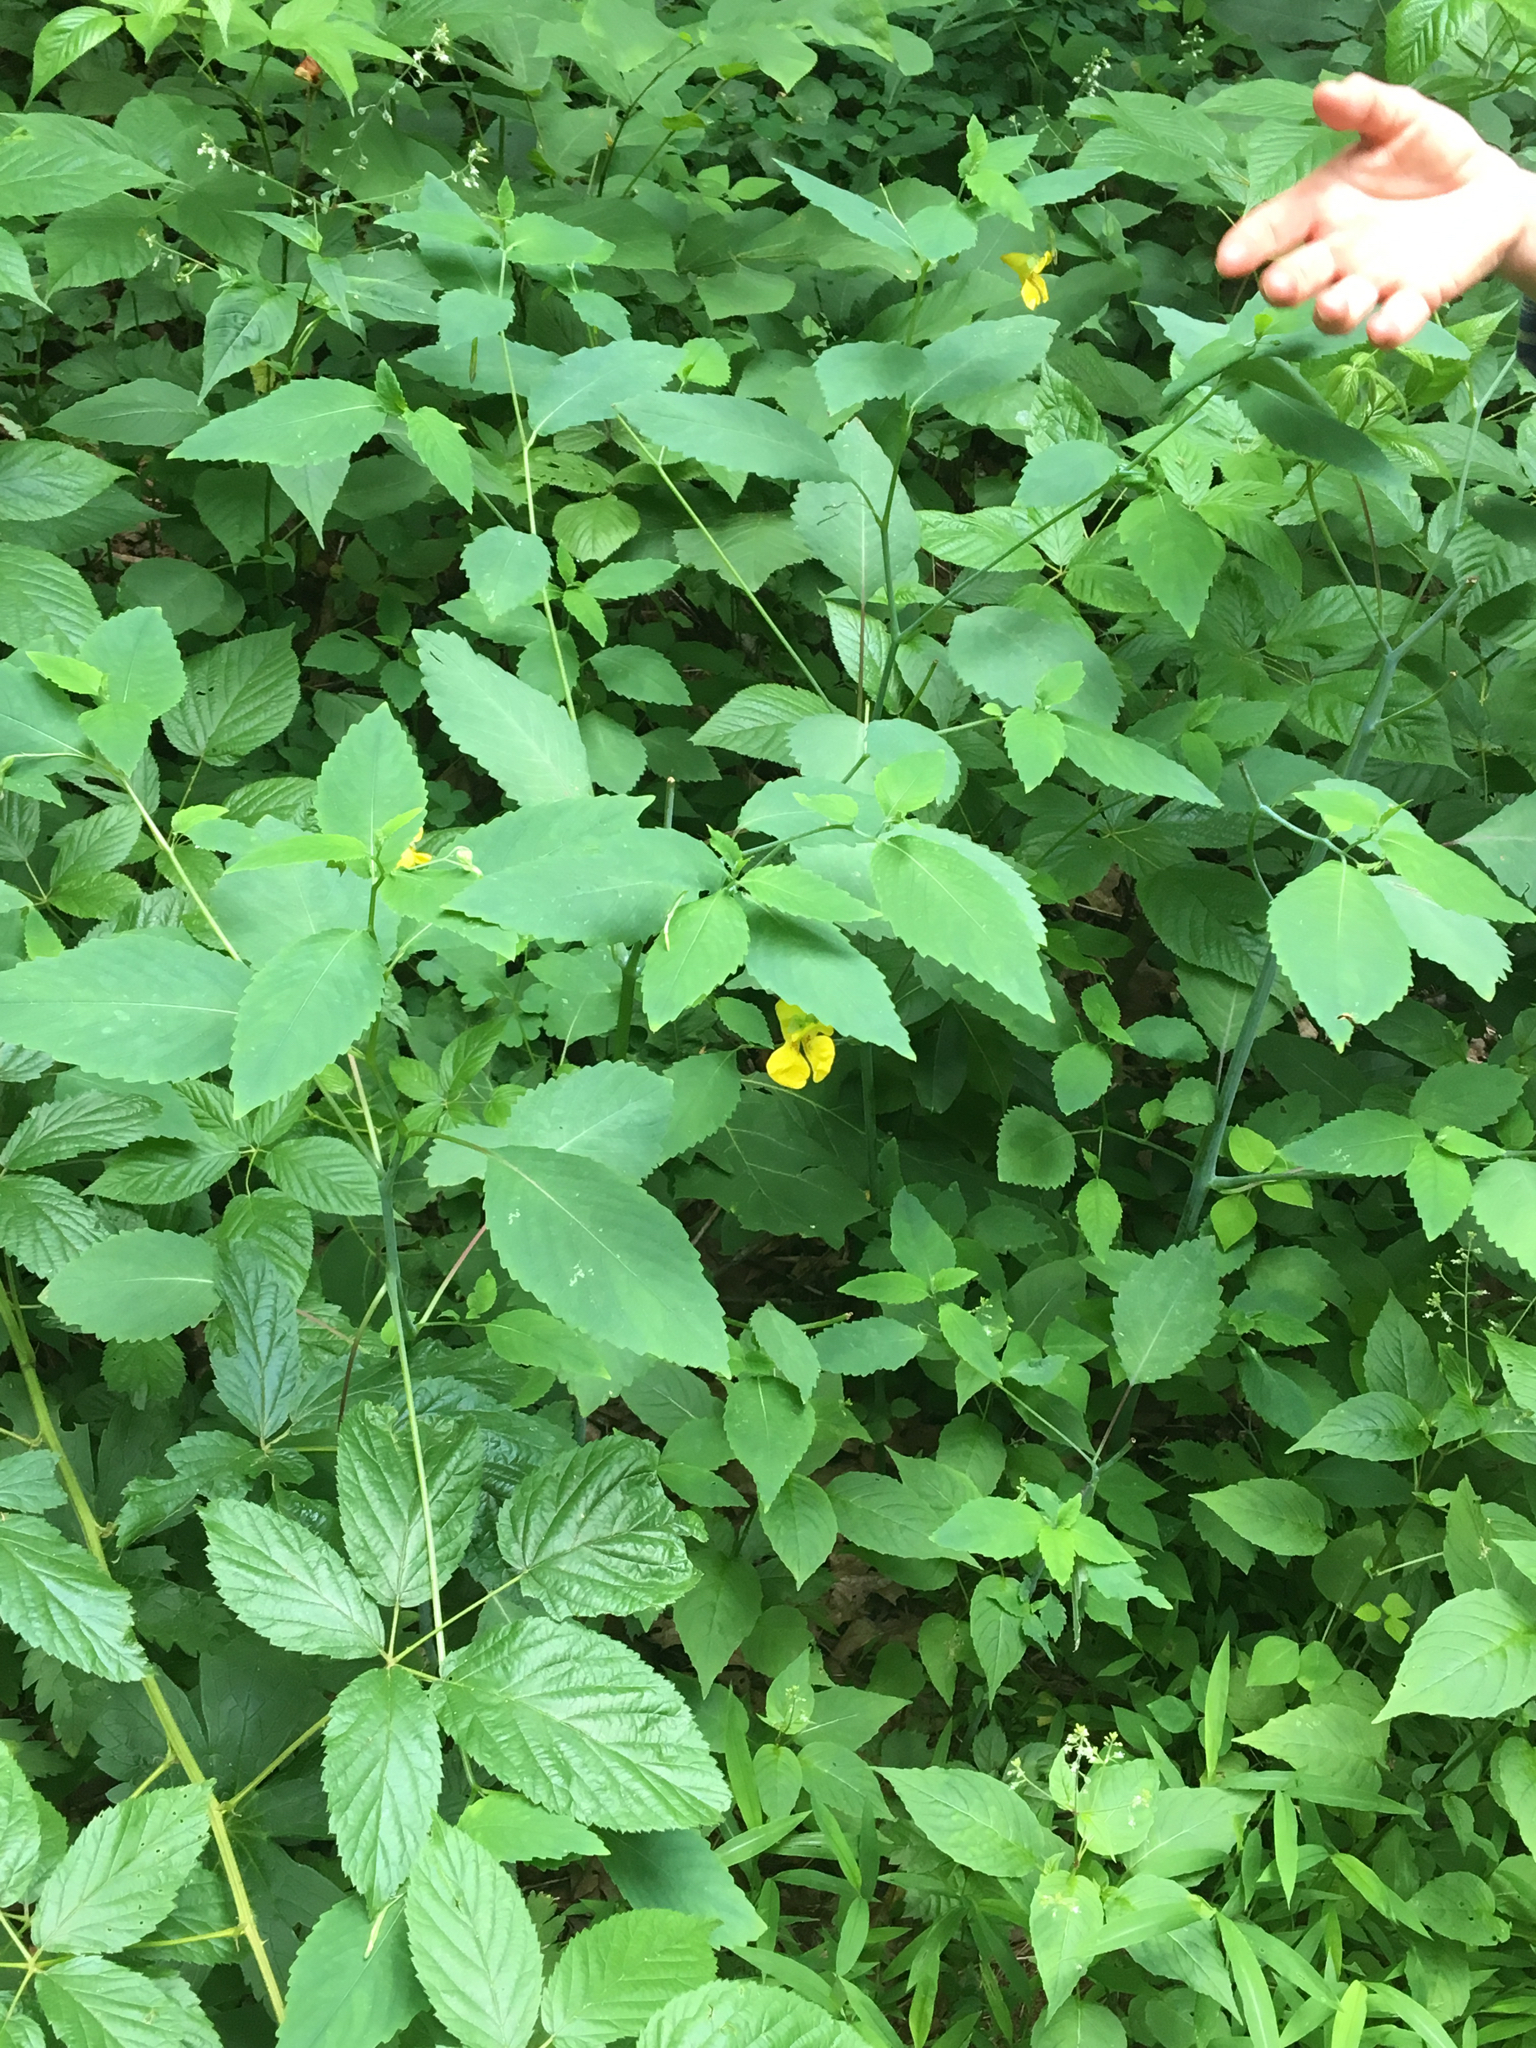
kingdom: Plantae
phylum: Tracheophyta
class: Magnoliopsida
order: Ericales
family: Balsaminaceae
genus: Impatiens
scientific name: Impatiens pallida
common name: Pale snapweed
